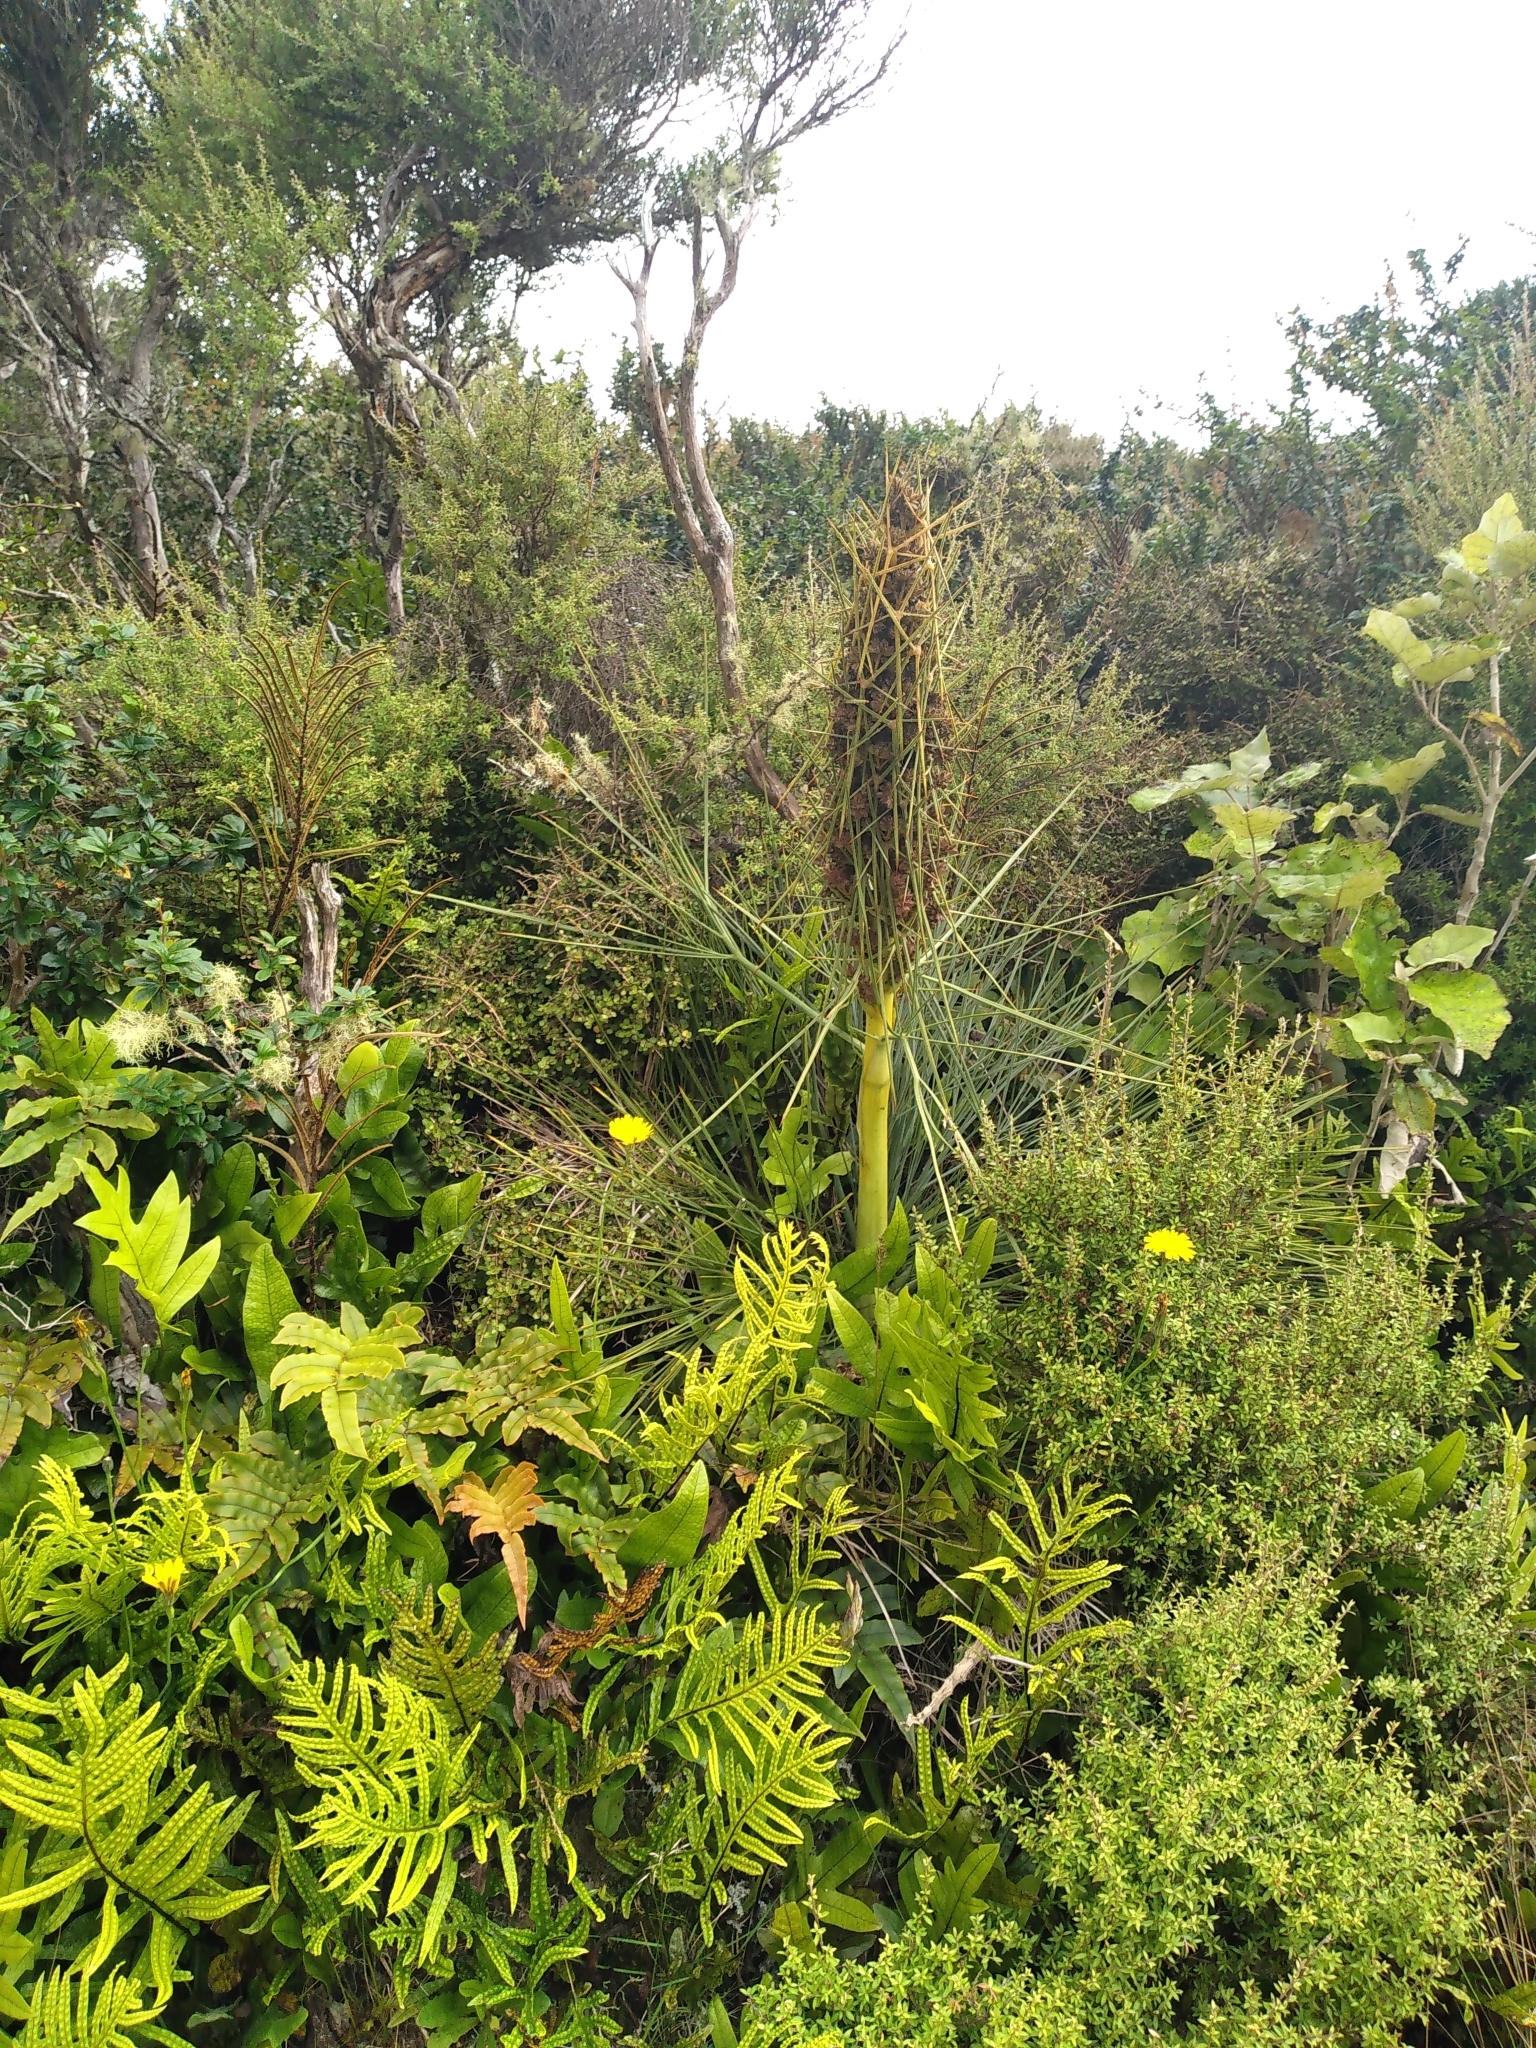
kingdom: Plantae
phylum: Tracheophyta
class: Magnoliopsida
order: Apiales
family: Apiaceae
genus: Aciphylla
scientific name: Aciphylla squarrosa
